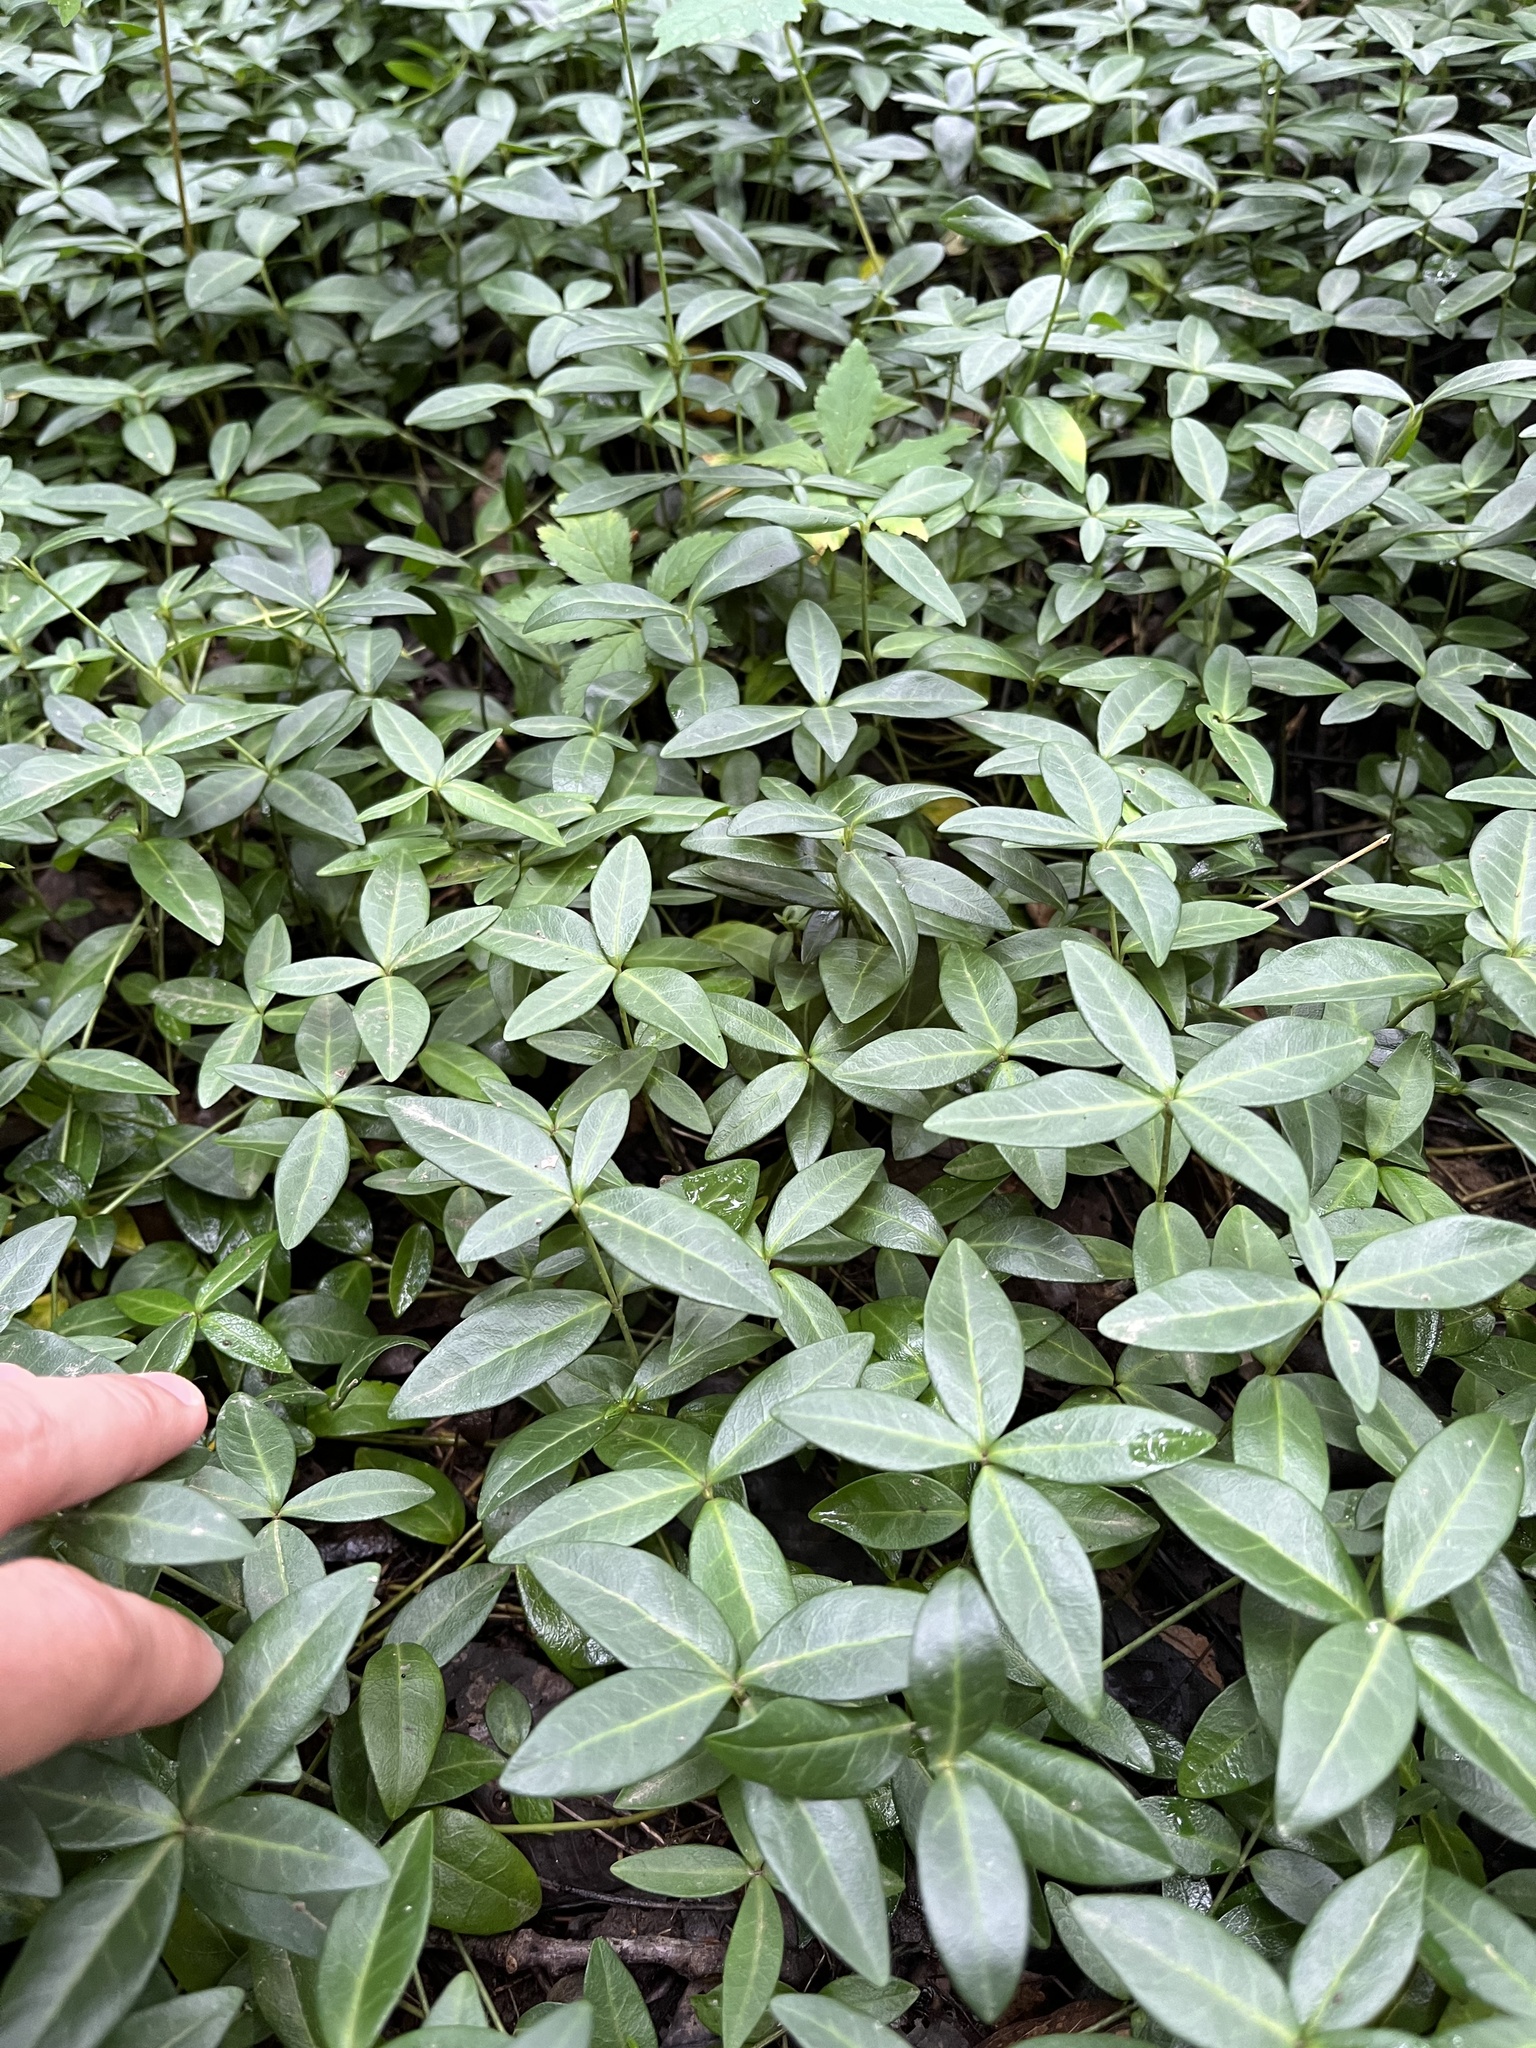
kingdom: Plantae
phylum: Tracheophyta
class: Magnoliopsida
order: Gentianales
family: Apocynaceae
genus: Vinca
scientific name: Vinca minor
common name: Lesser periwinkle
